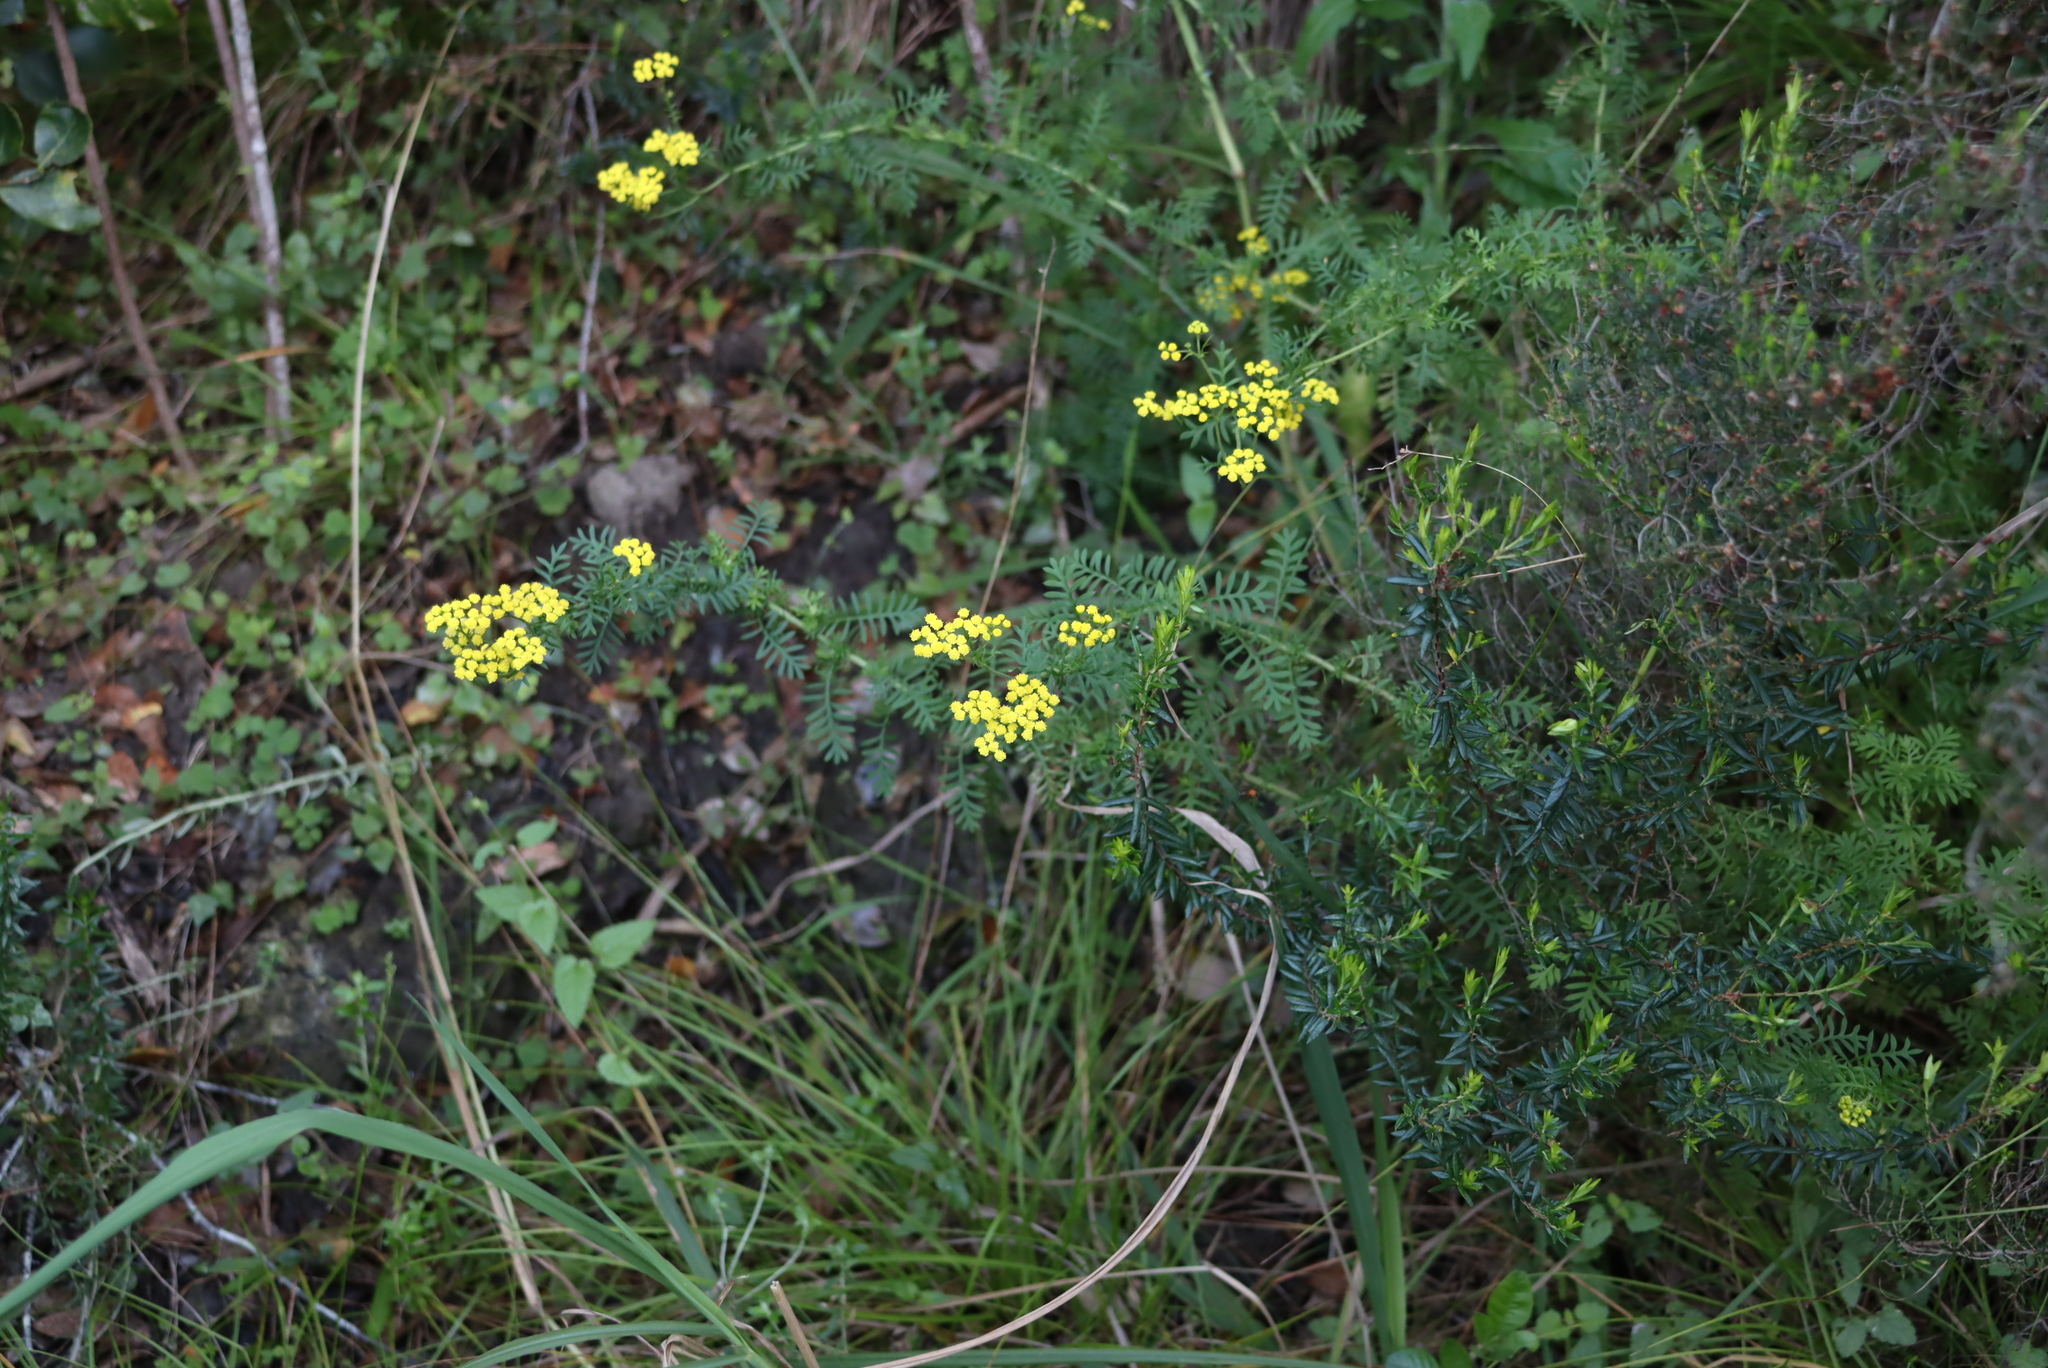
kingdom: Plantae
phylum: Tracheophyta
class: Magnoliopsida
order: Asterales
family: Asteraceae
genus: Hippia
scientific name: Hippia frutescens
